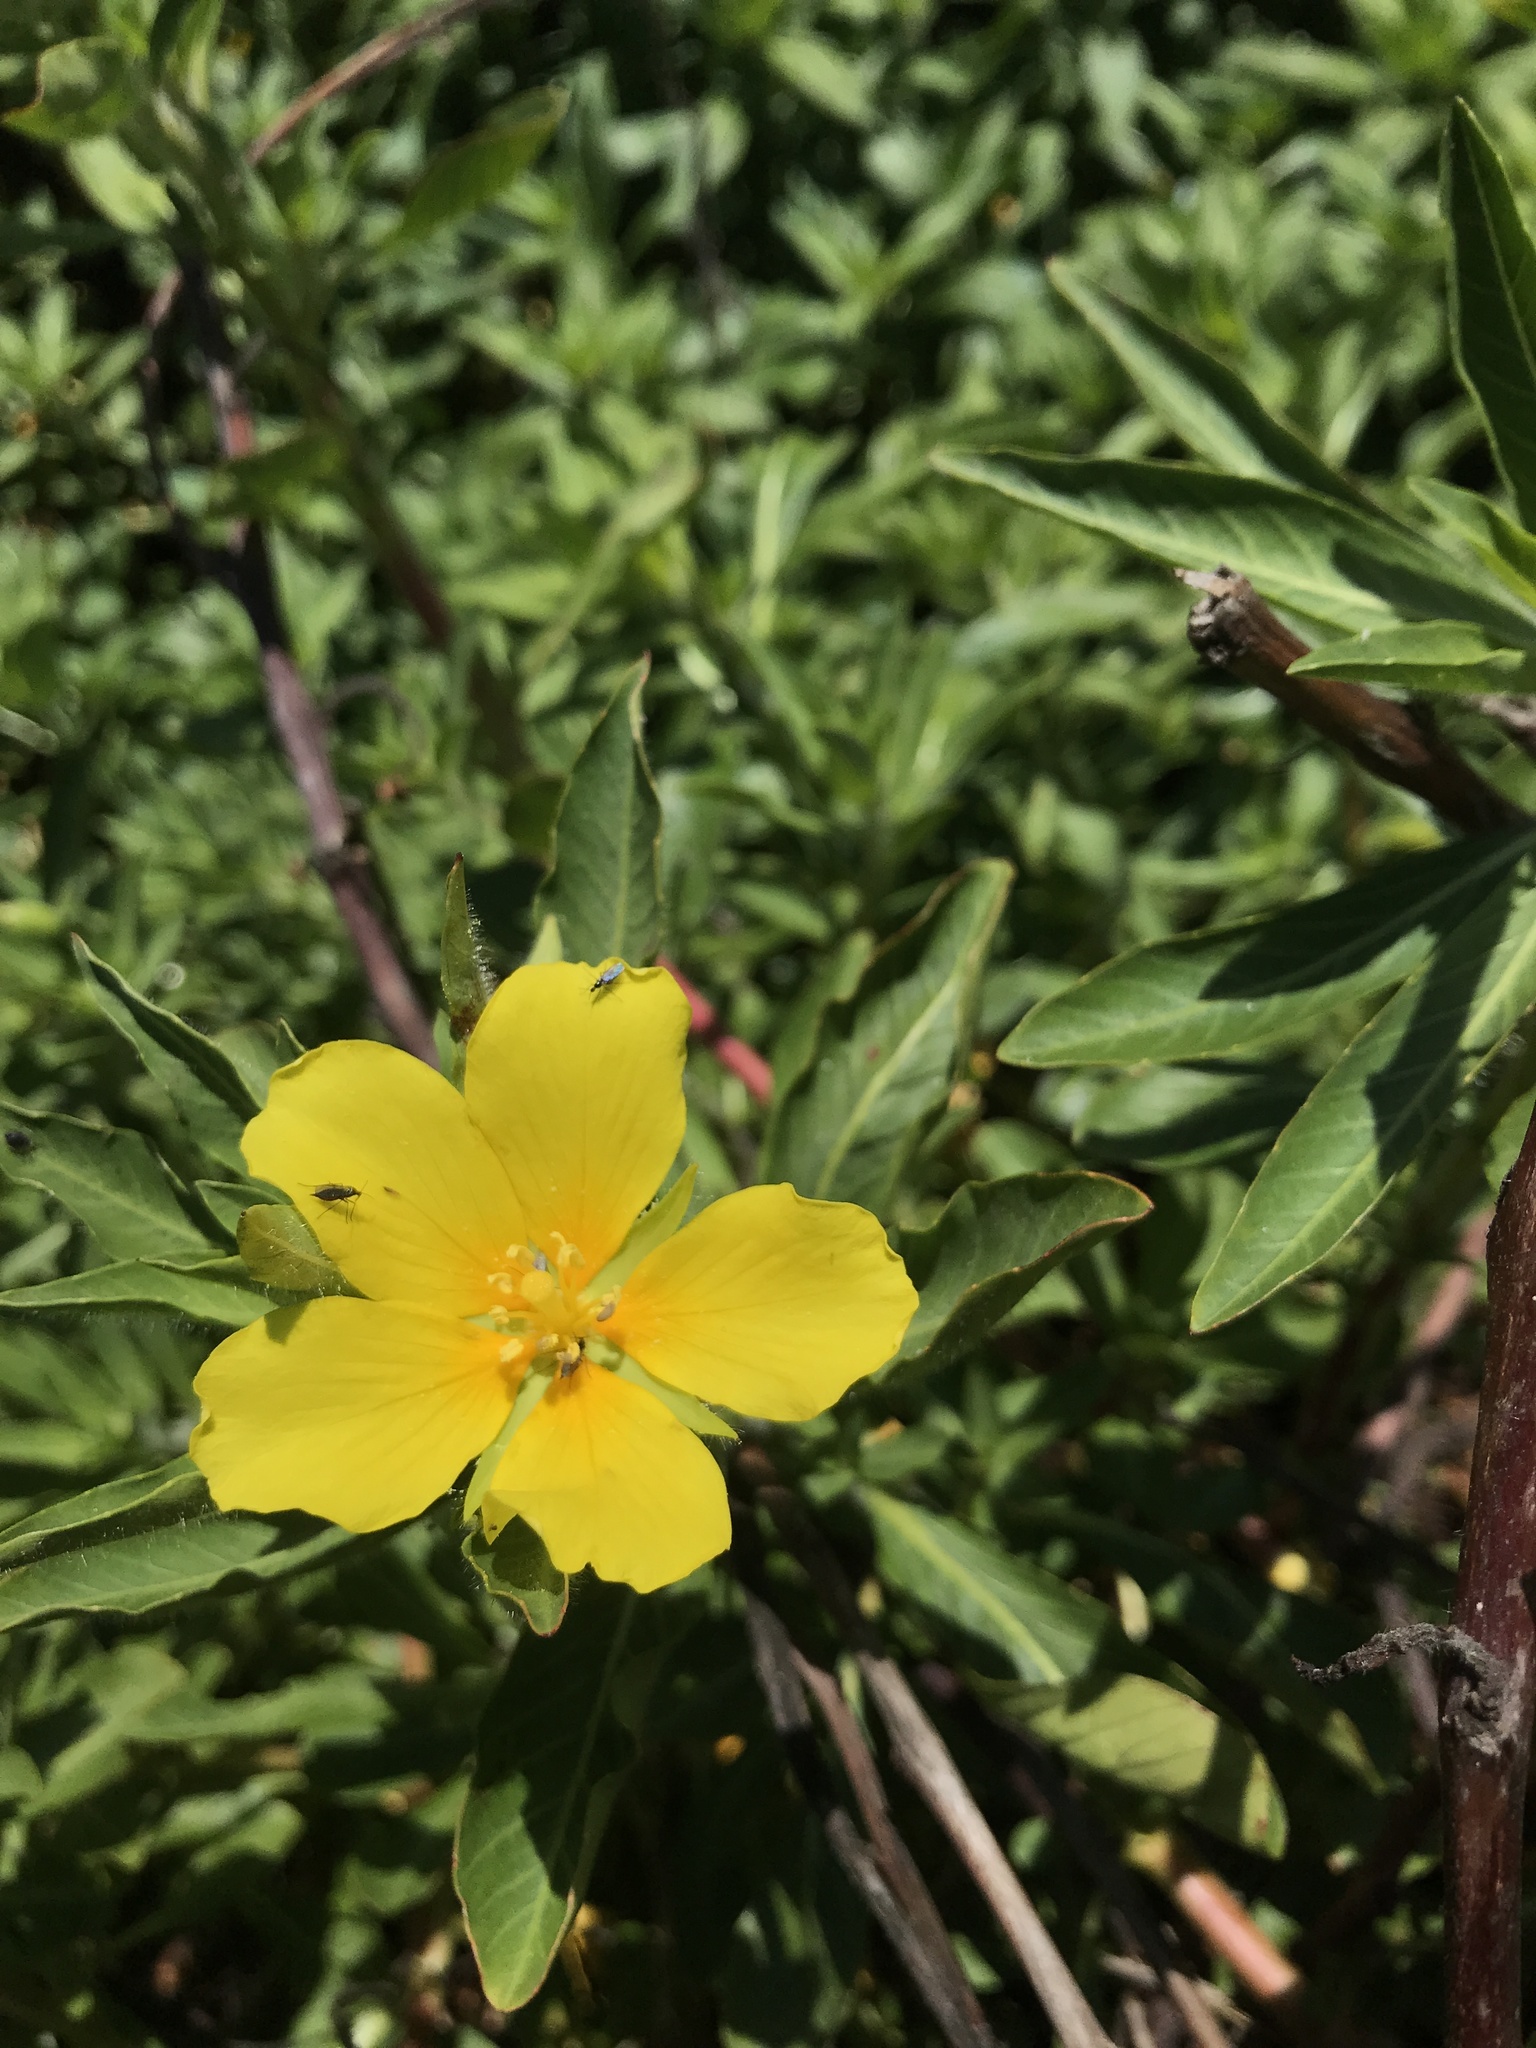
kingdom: Plantae
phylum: Tracheophyta
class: Magnoliopsida
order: Myrtales
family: Onagraceae
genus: Ludwigia
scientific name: Ludwigia peploides
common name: Floating primrose-willow
